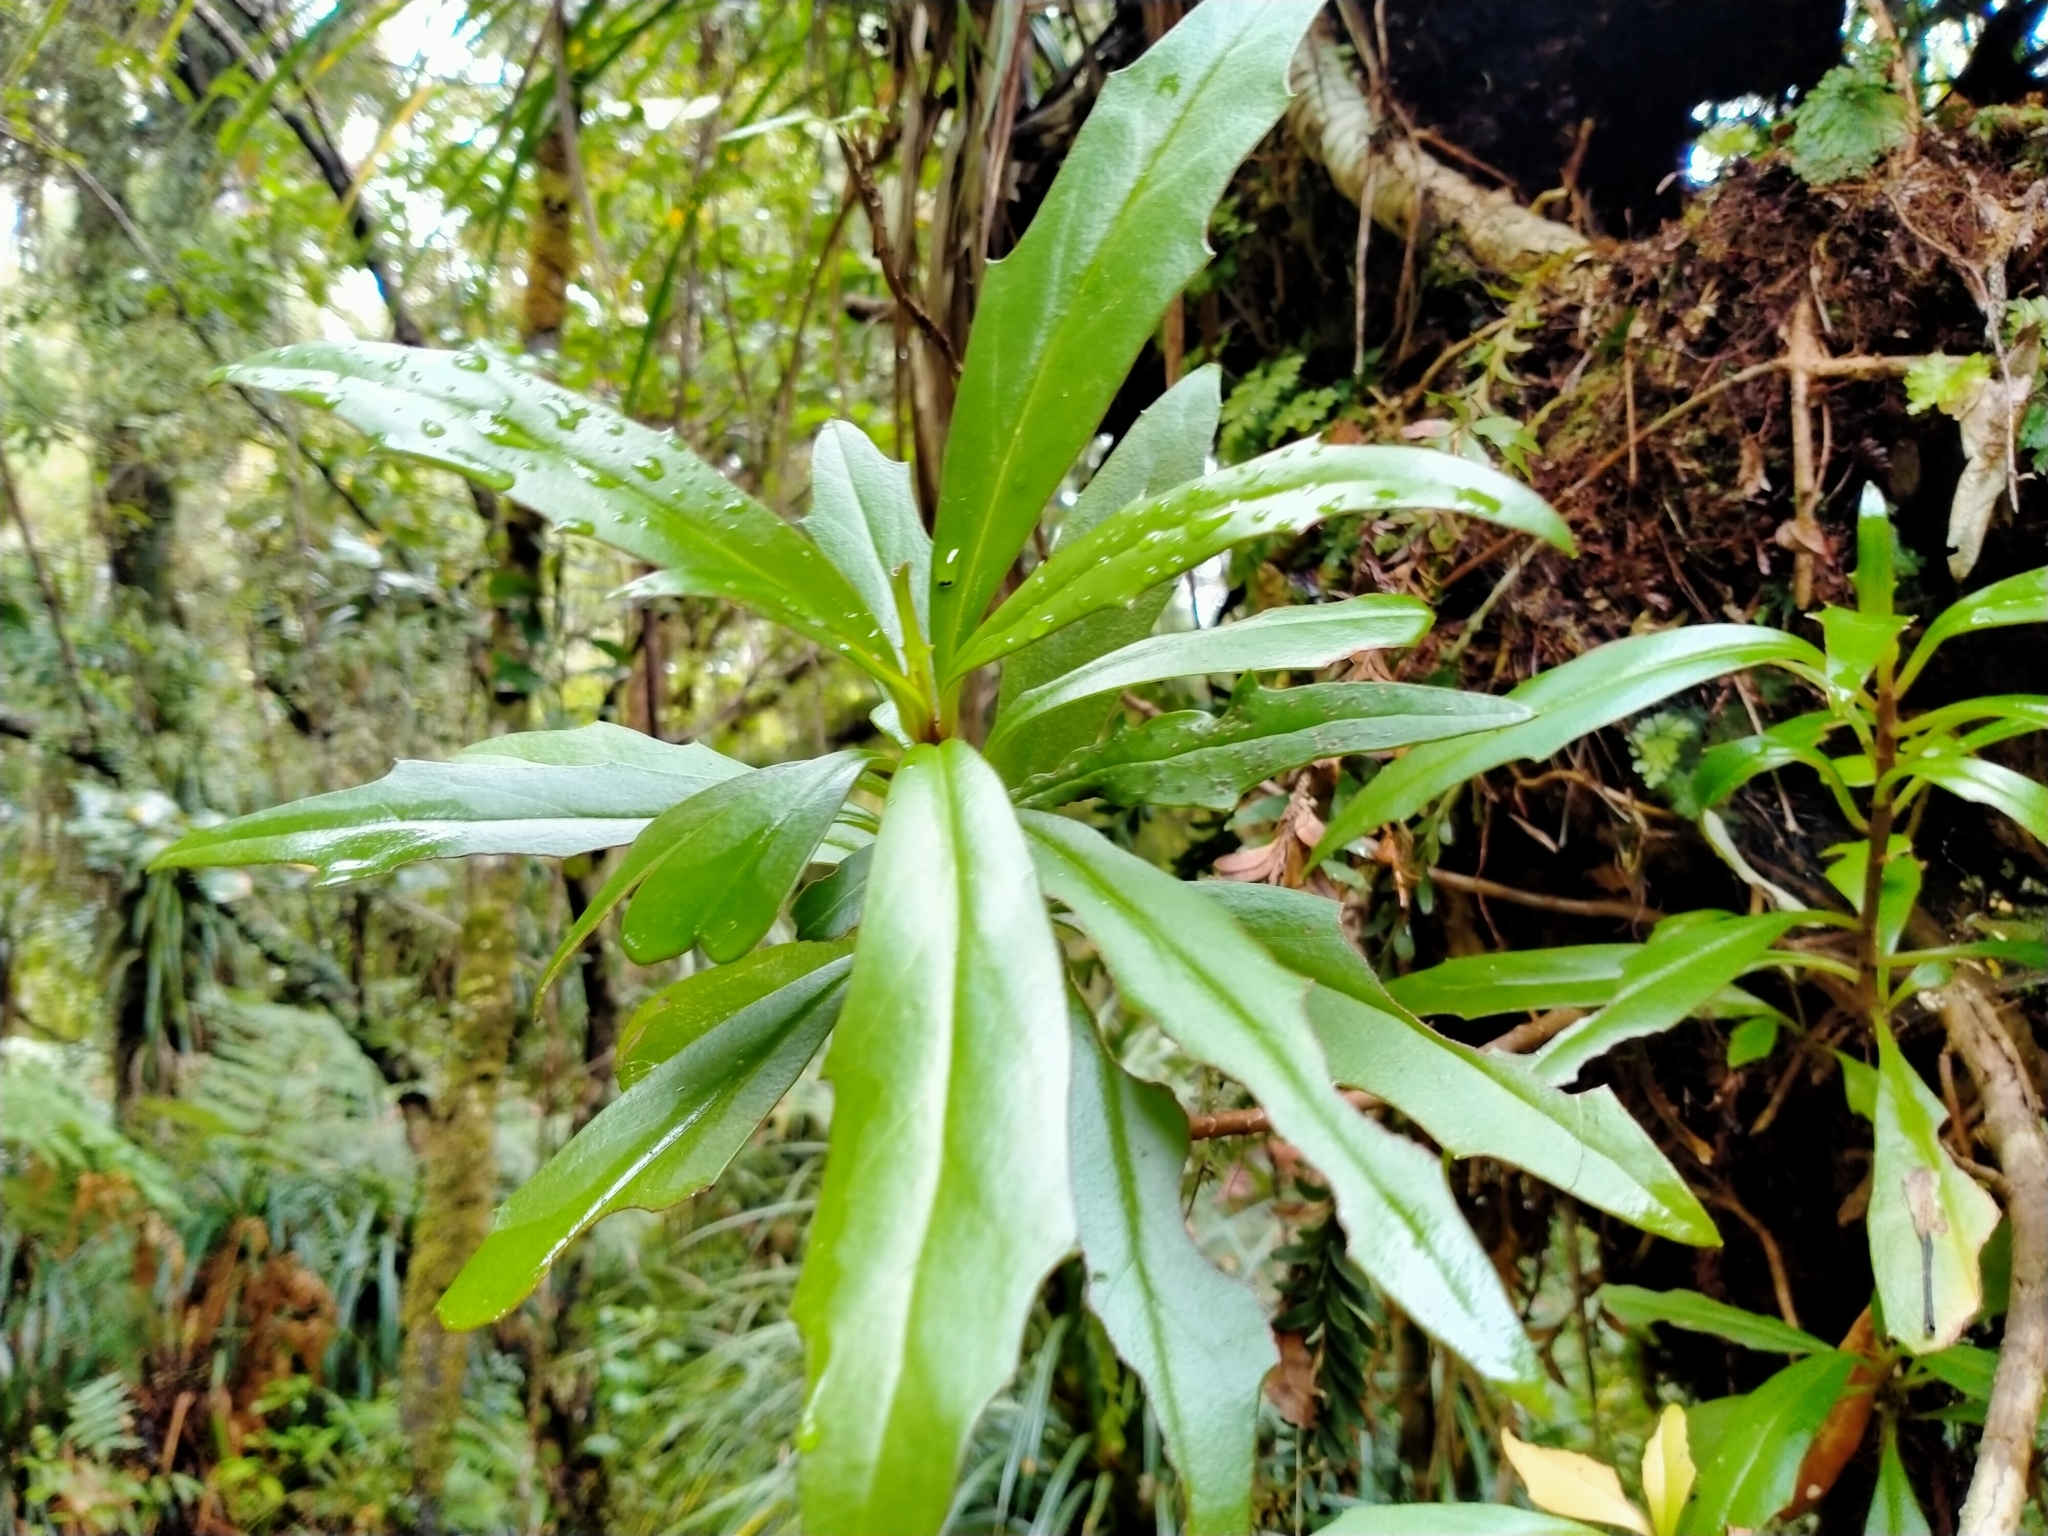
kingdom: Plantae
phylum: Tracheophyta
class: Magnoliopsida
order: Asterales
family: Asteraceae
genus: Brachyglottis
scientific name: Brachyglottis kirkii
